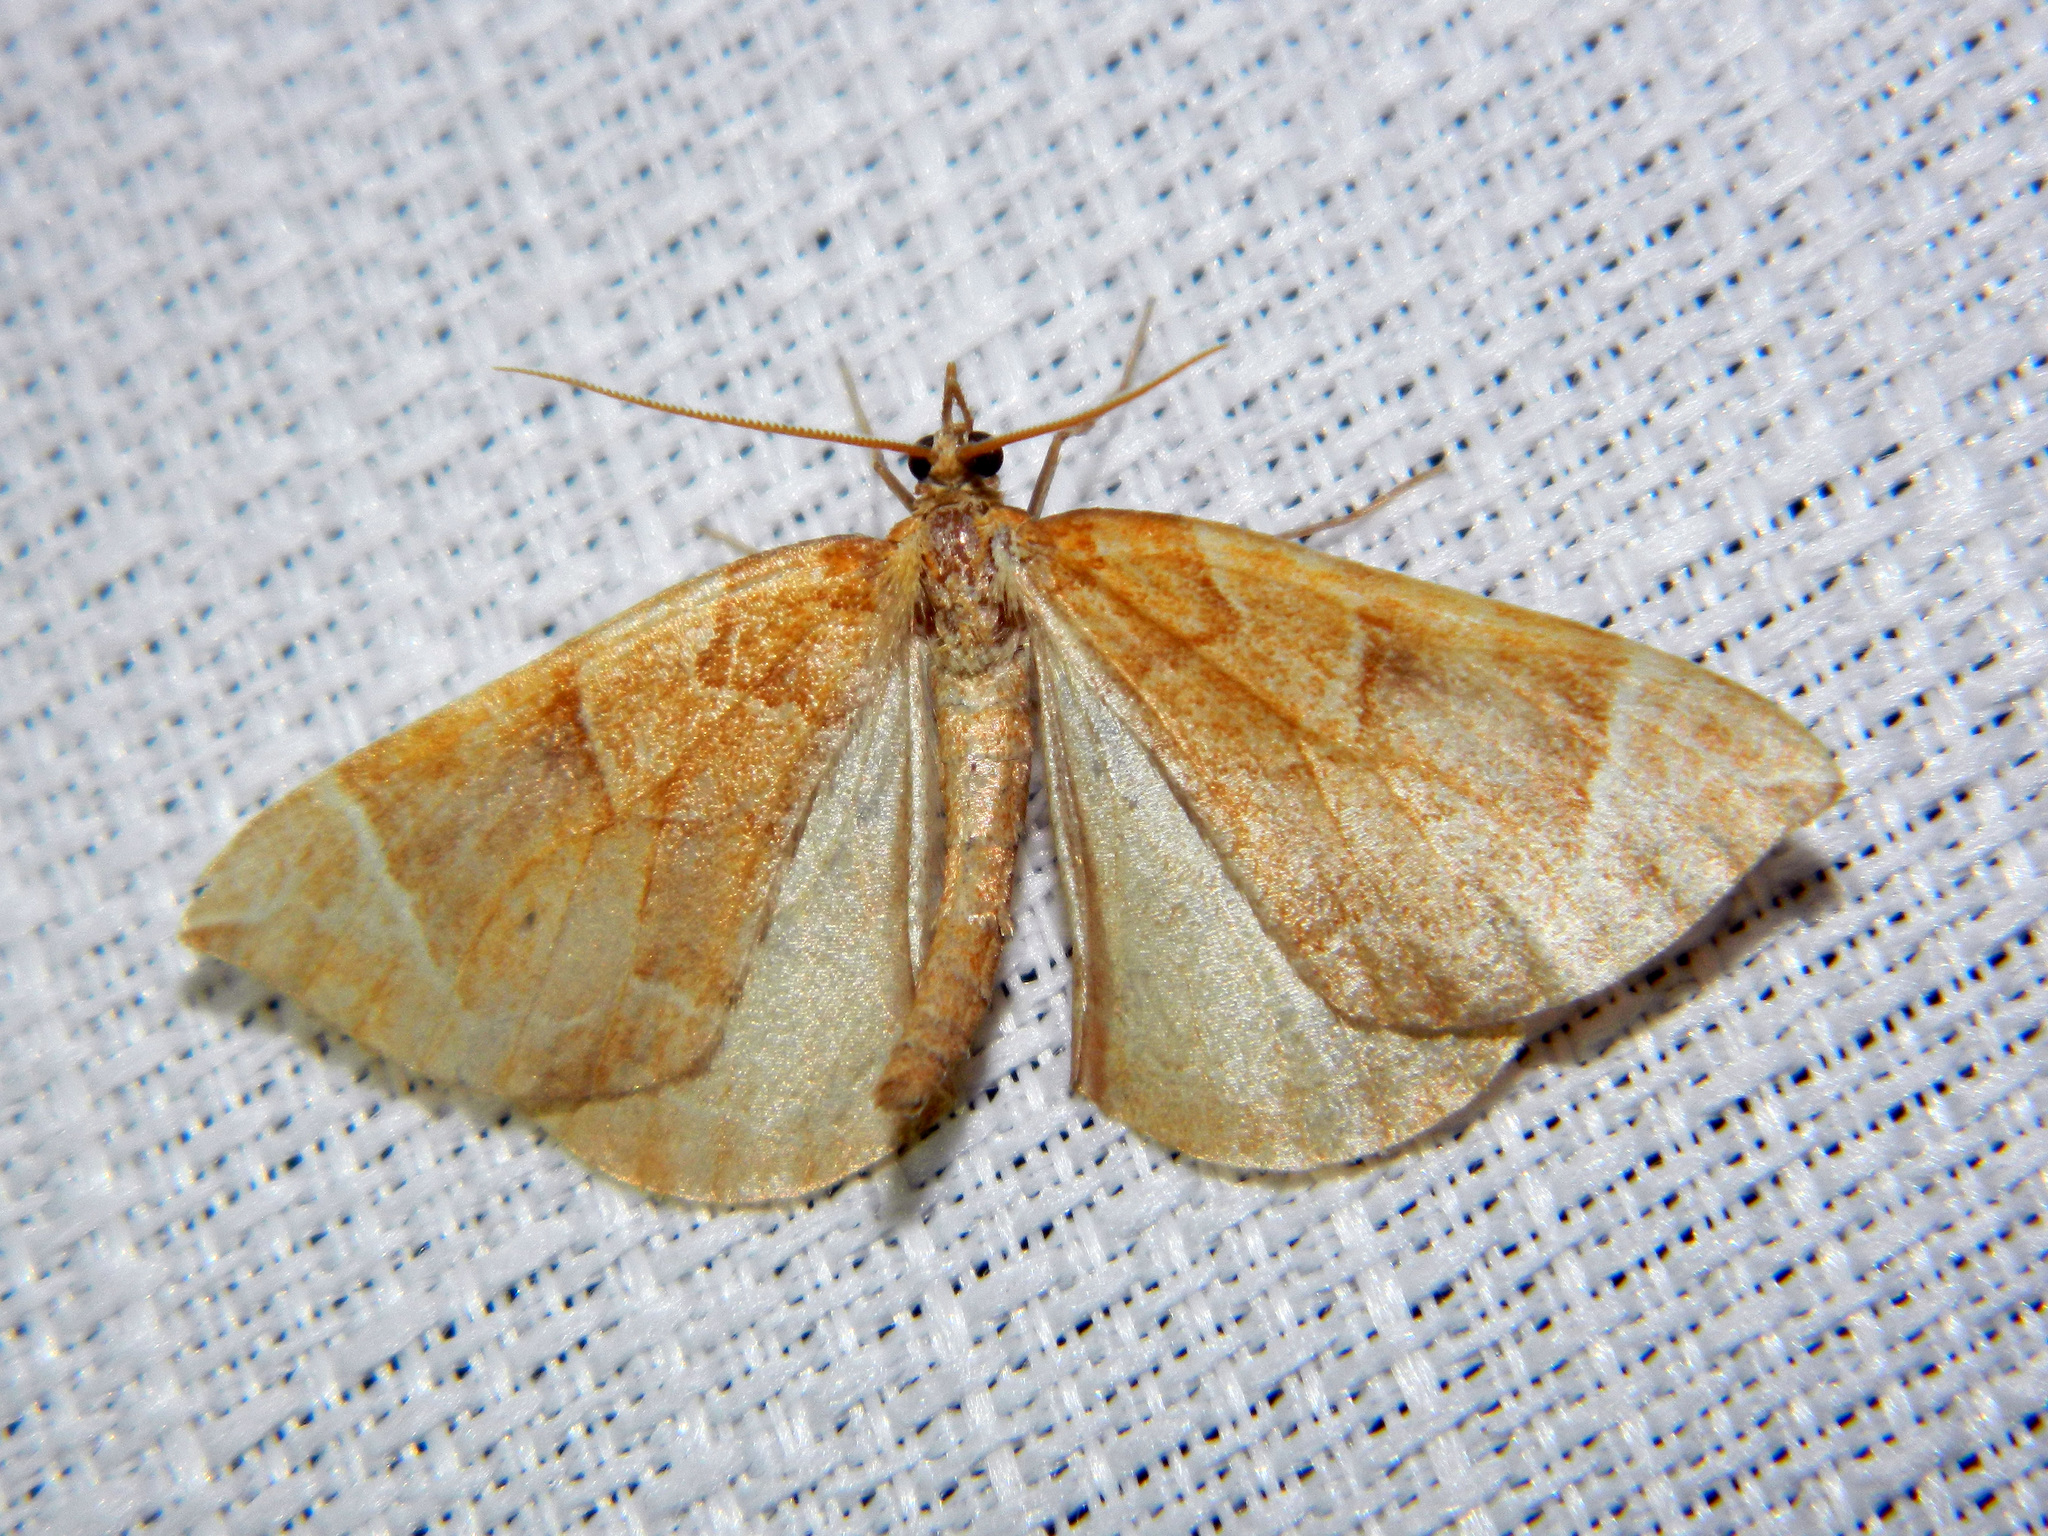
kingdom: Animalia
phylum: Arthropoda
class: Insecta
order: Lepidoptera
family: Geometridae
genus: Eulithis
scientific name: Eulithis testata
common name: Chevron
